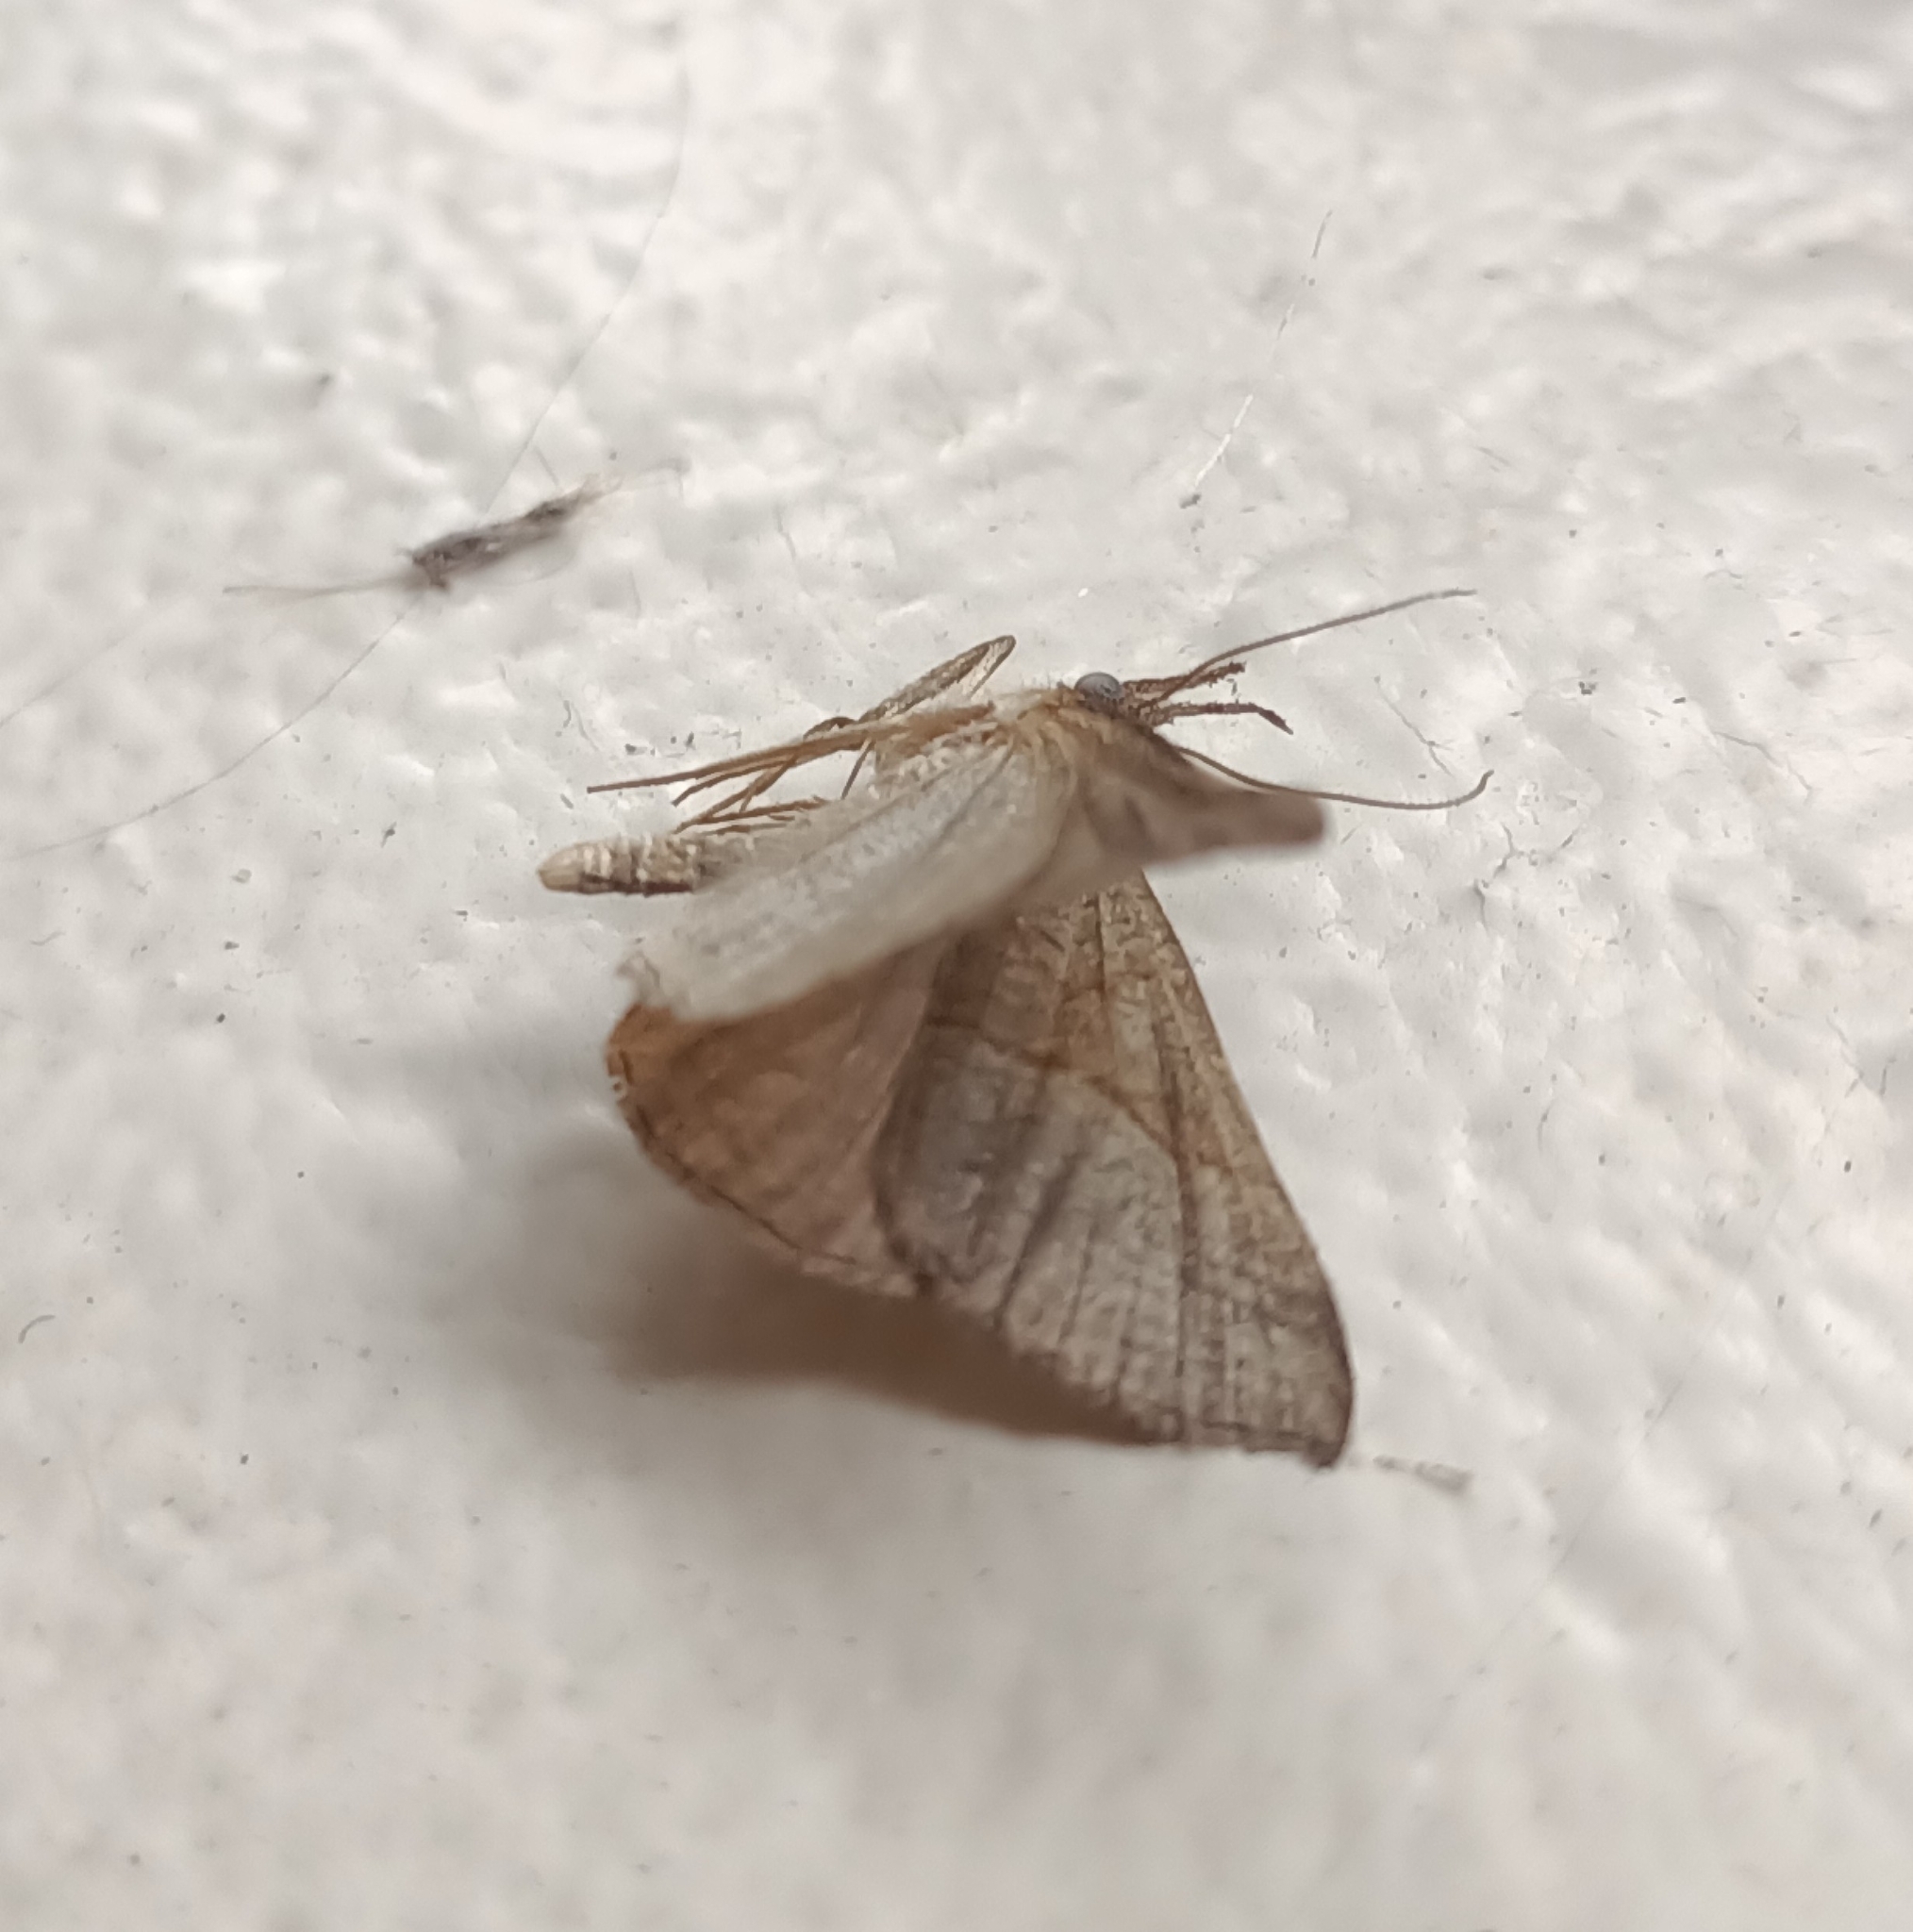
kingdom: Animalia
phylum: Arthropoda
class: Insecta
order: Lepidoptera
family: Erebidae
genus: Hypena
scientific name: Hypena proboscidalis
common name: Snout
